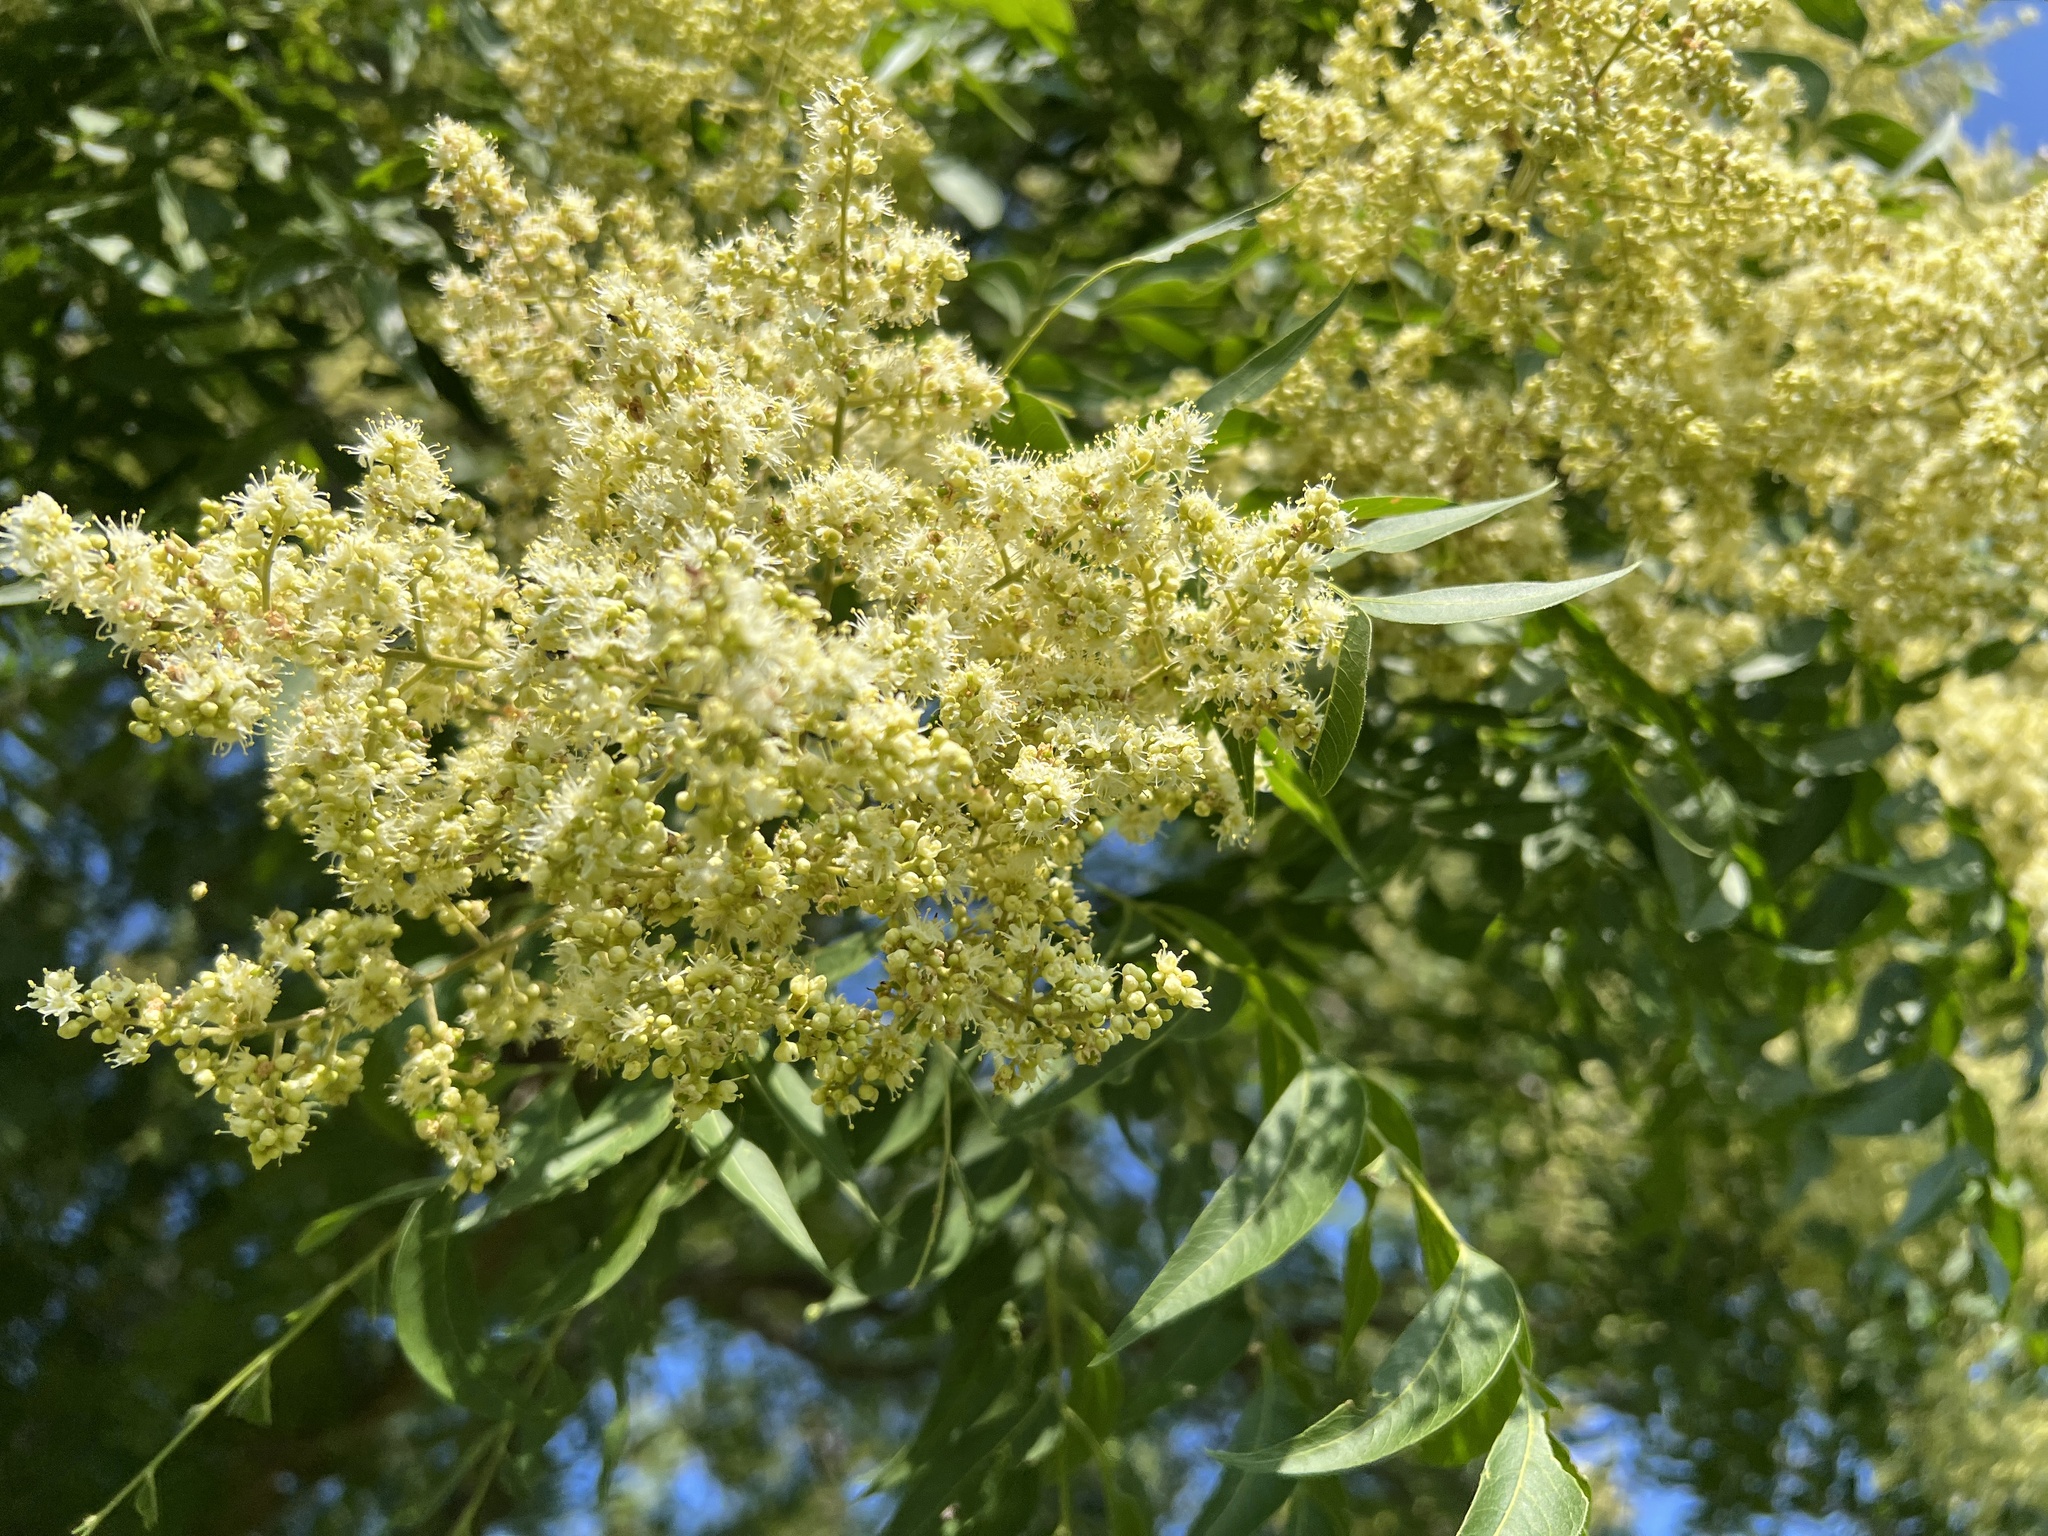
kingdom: Plantae
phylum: Tracheophyta
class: Magnoliopsida
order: Sapindales
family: Sapindaceae
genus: Sapindus
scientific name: Sapindus drummondii
